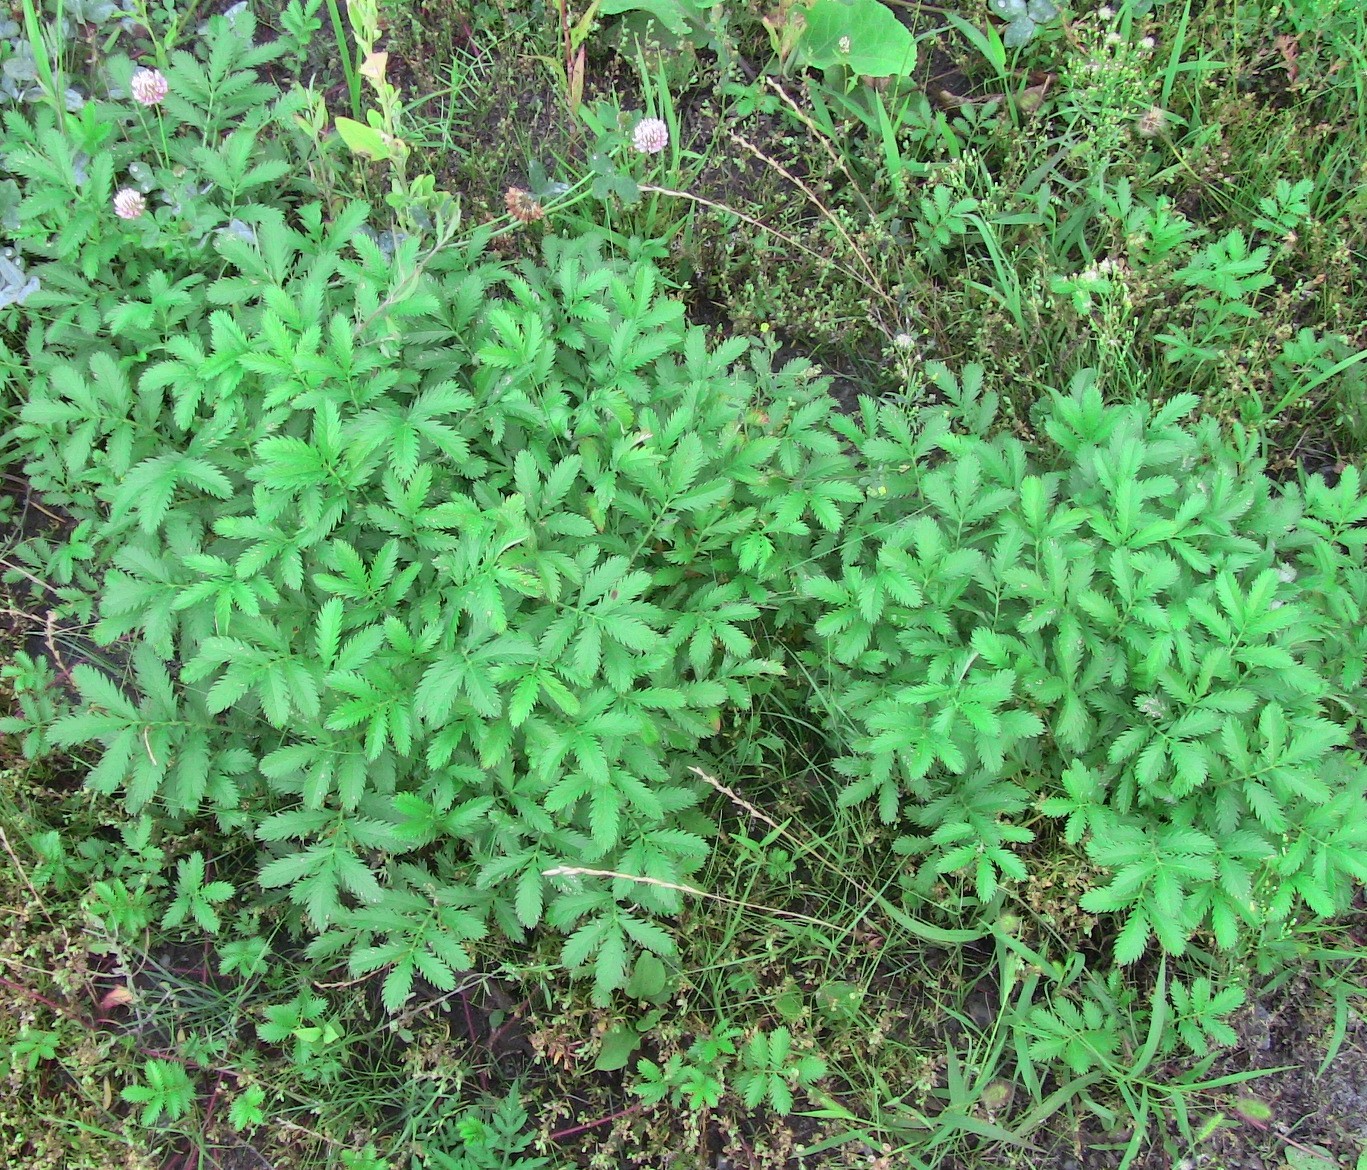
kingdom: Plantae
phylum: Tracheophyta
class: Magnoliopsida
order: Rosales
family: Rosaceae
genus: Argentina
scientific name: Argentina anserina
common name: Common silverweed
